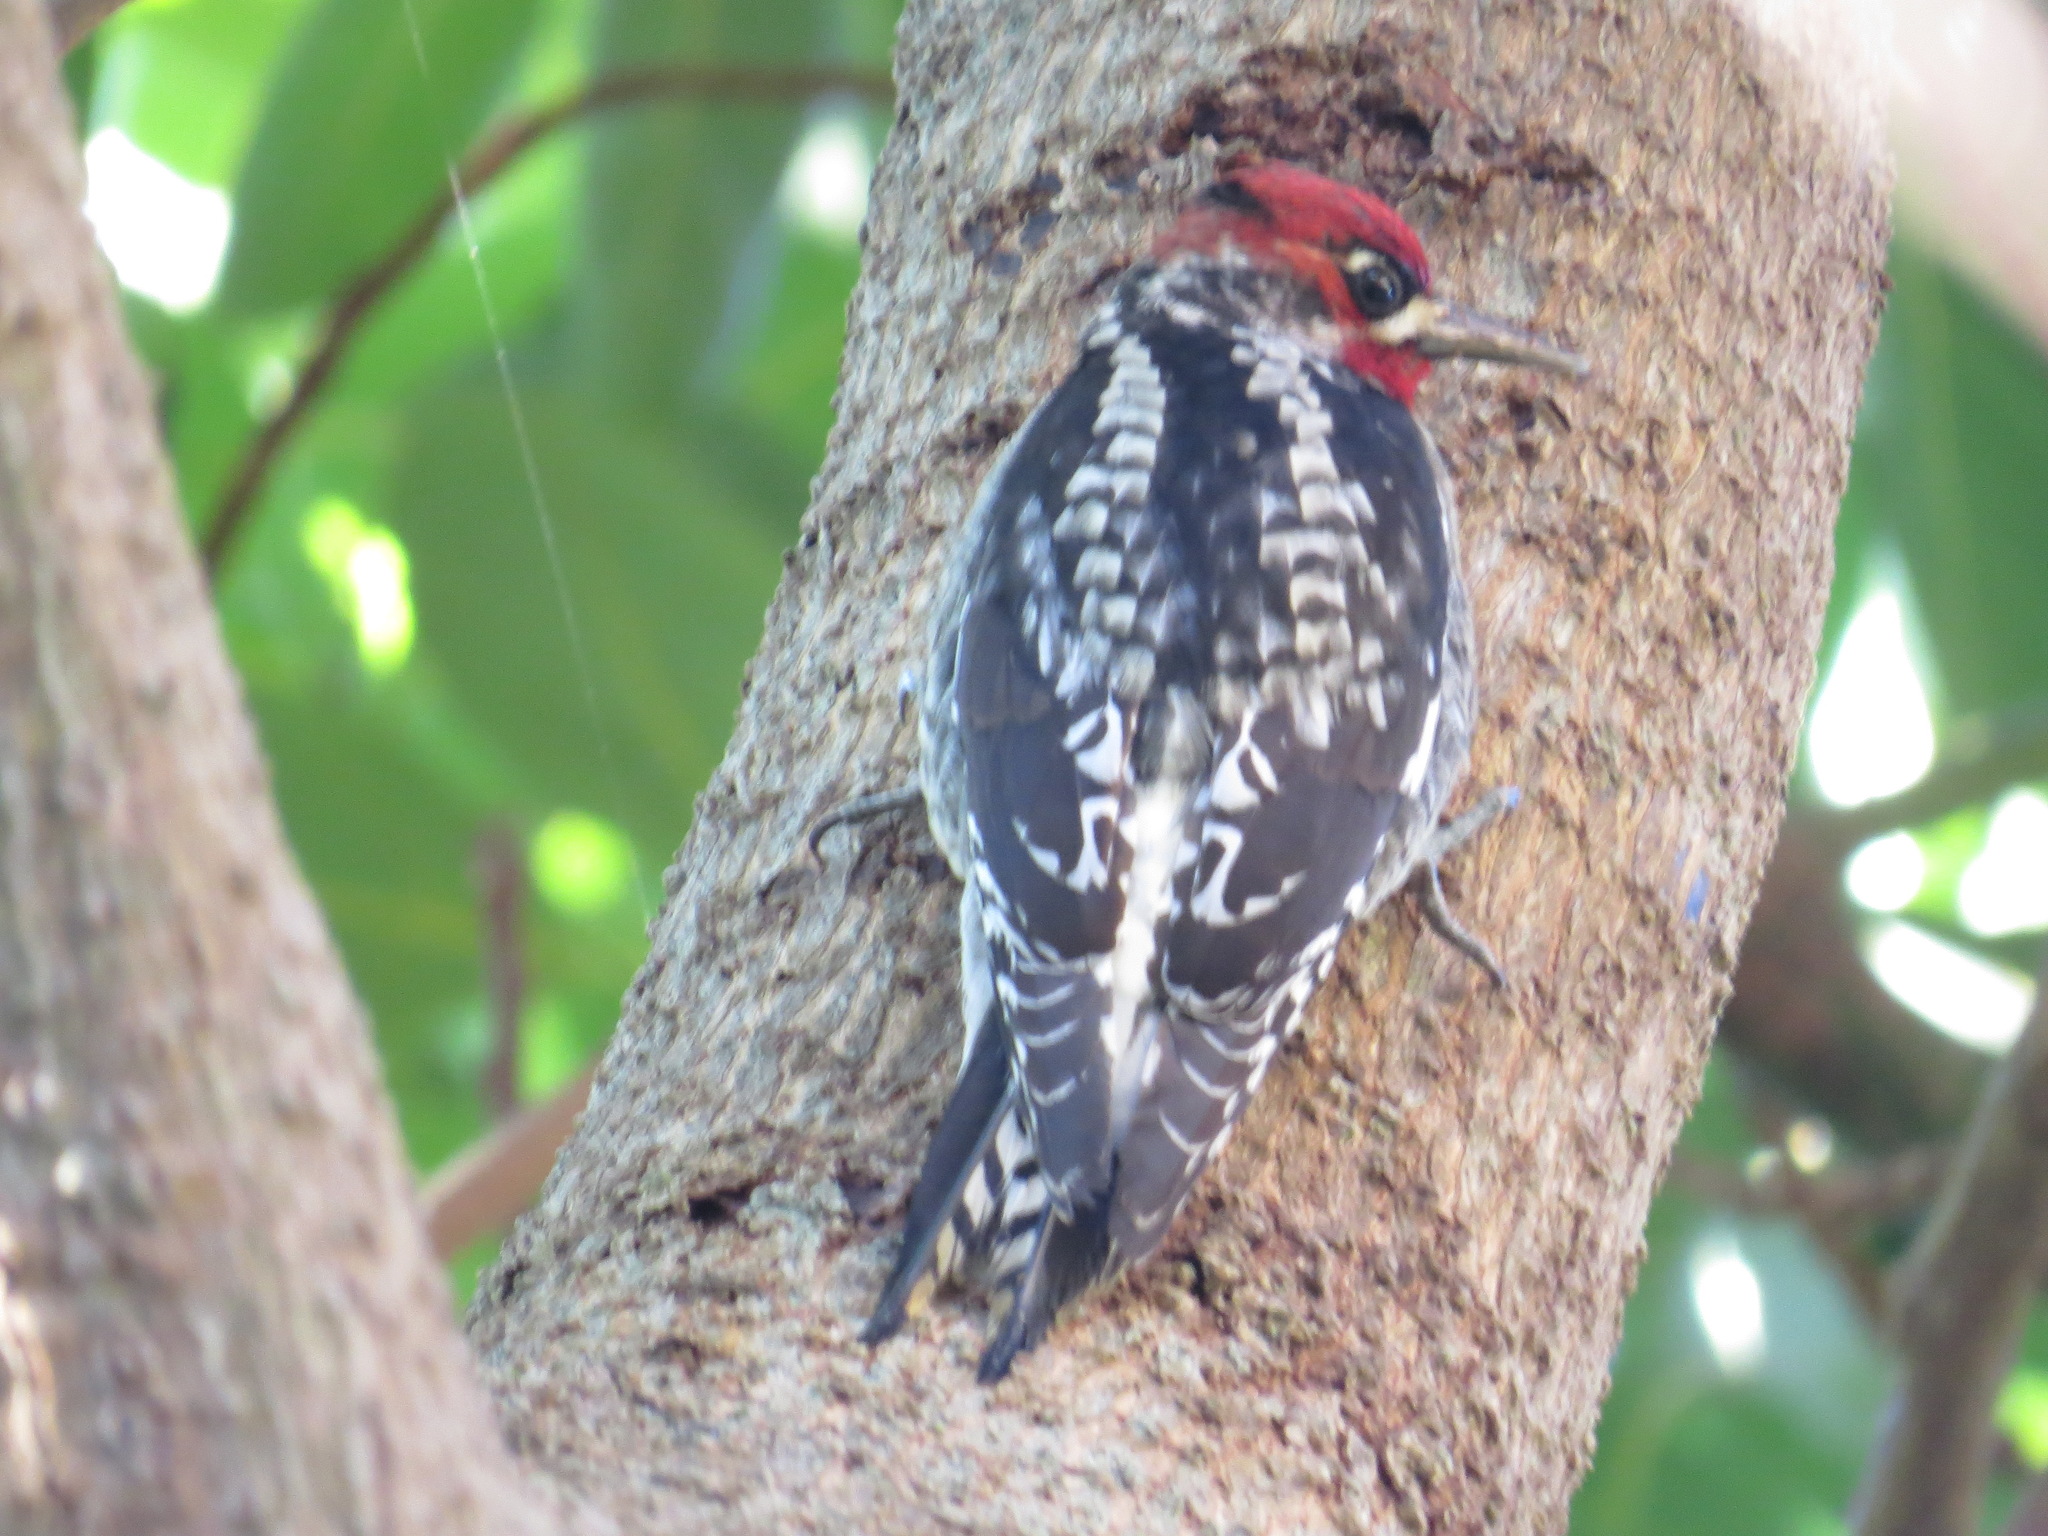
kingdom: Animalia
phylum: Chordata
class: Aves
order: Piciformes
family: Picidae
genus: Sphyrapicus
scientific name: Sphyrapicus ruber
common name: Red-breasted sapsucker
